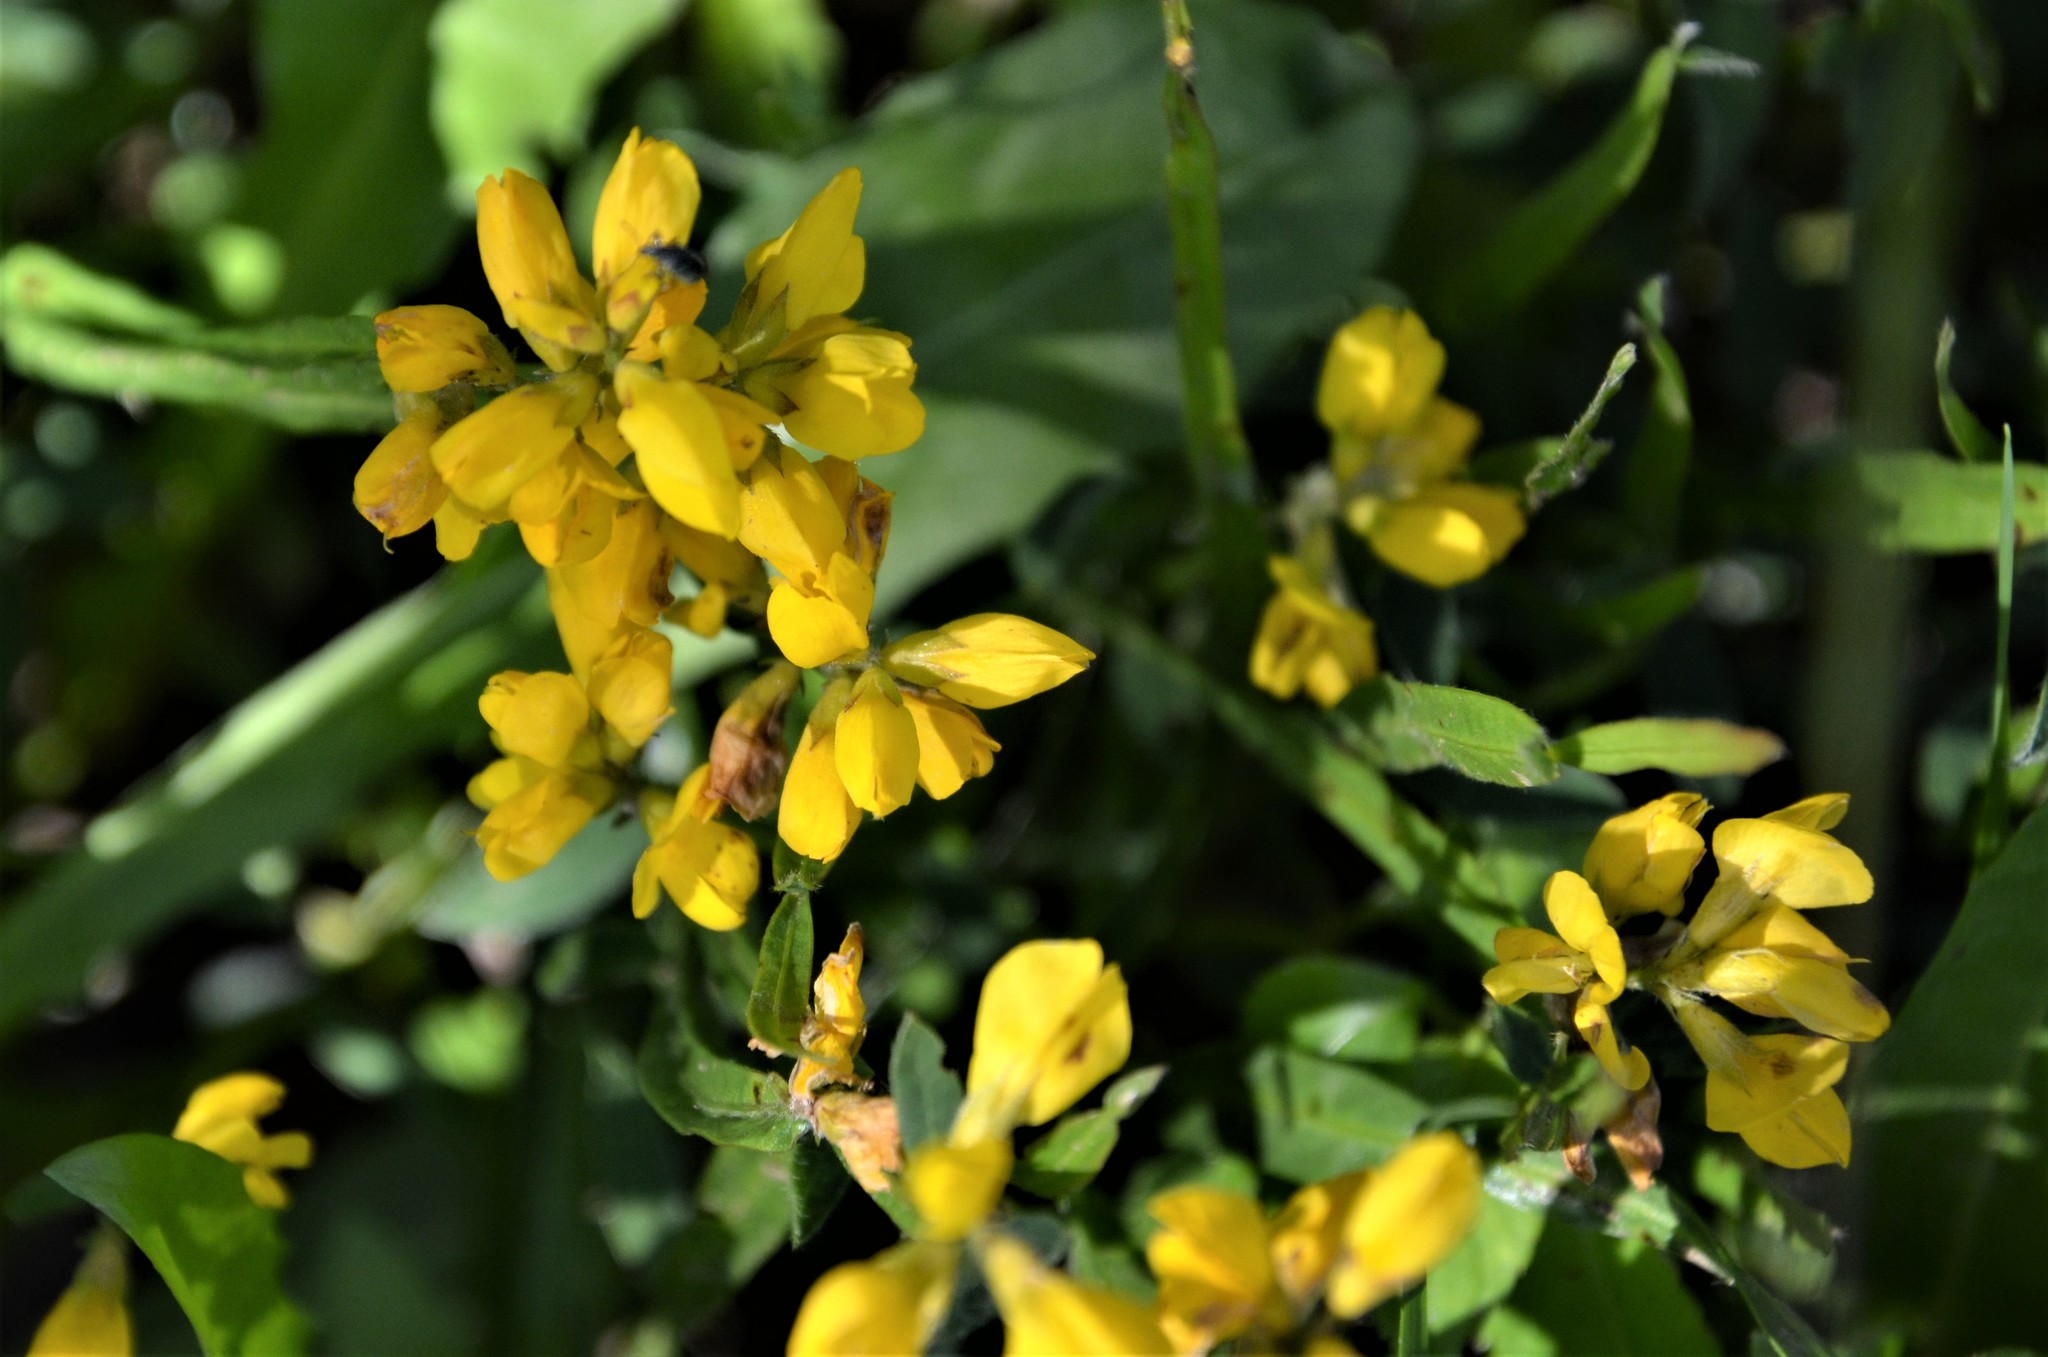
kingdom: Plantae
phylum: Tracheophyta
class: Magnoliopsida
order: Fabales
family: Fabaceae
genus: Genista
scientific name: Genista sagittalis
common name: Winged greenweed
